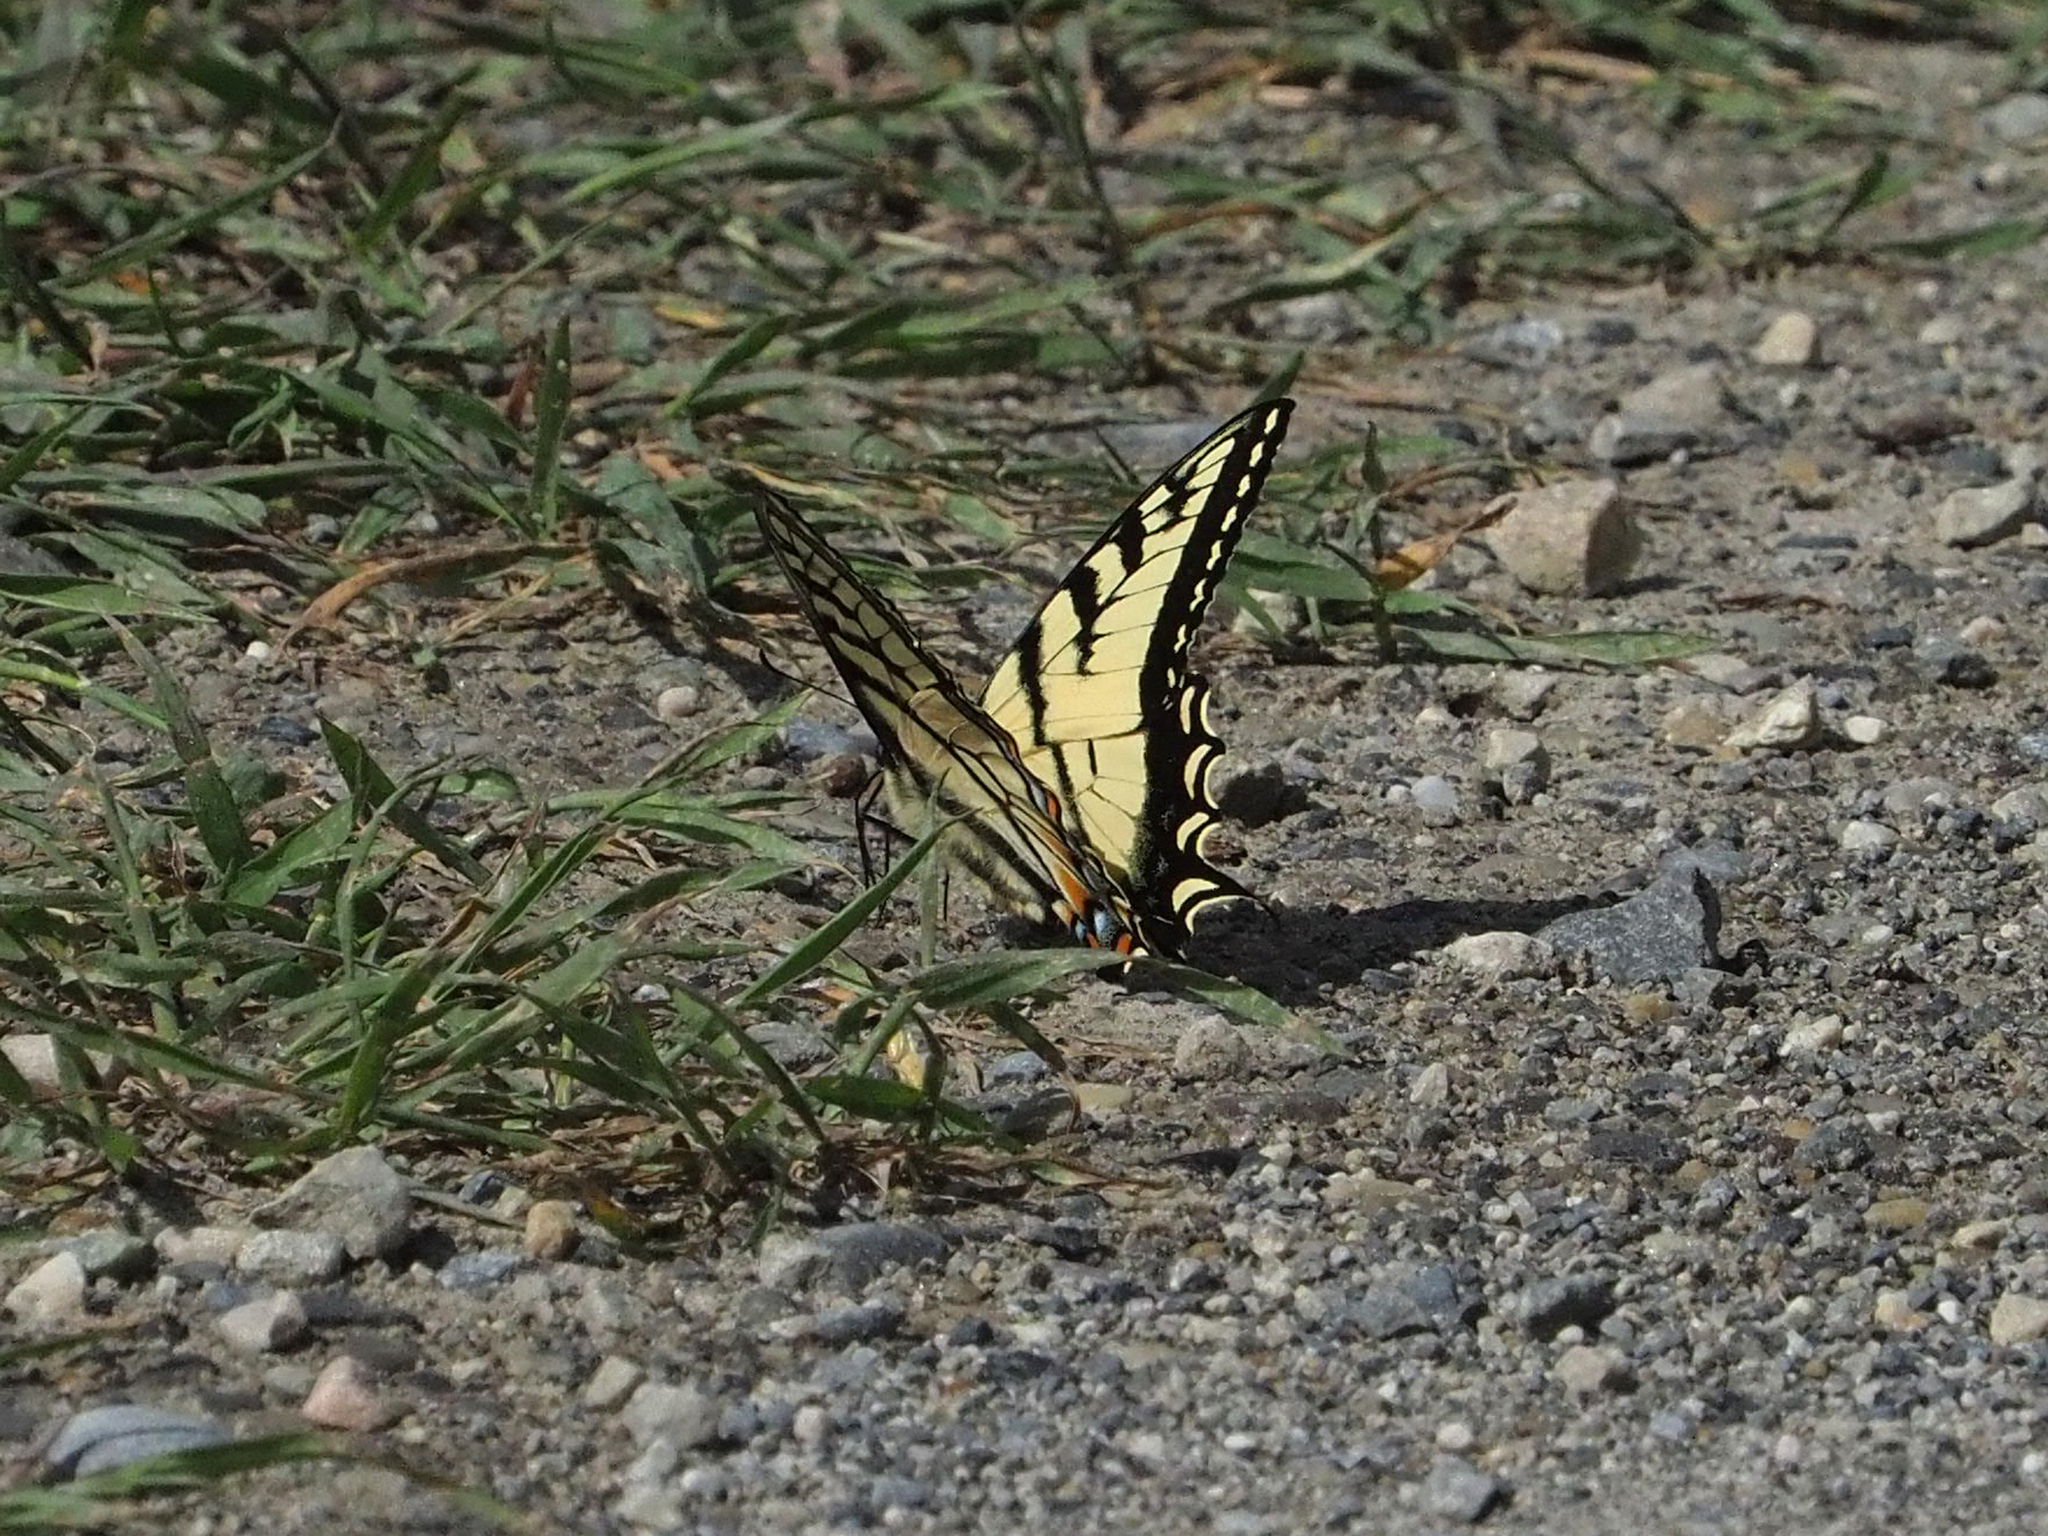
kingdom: Animalia
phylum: Arthropoda
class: Insecta
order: Lepidoptera
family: Papilionidae
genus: Papilio
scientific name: Papilio canadensis
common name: Canadian tiger swallowtail
